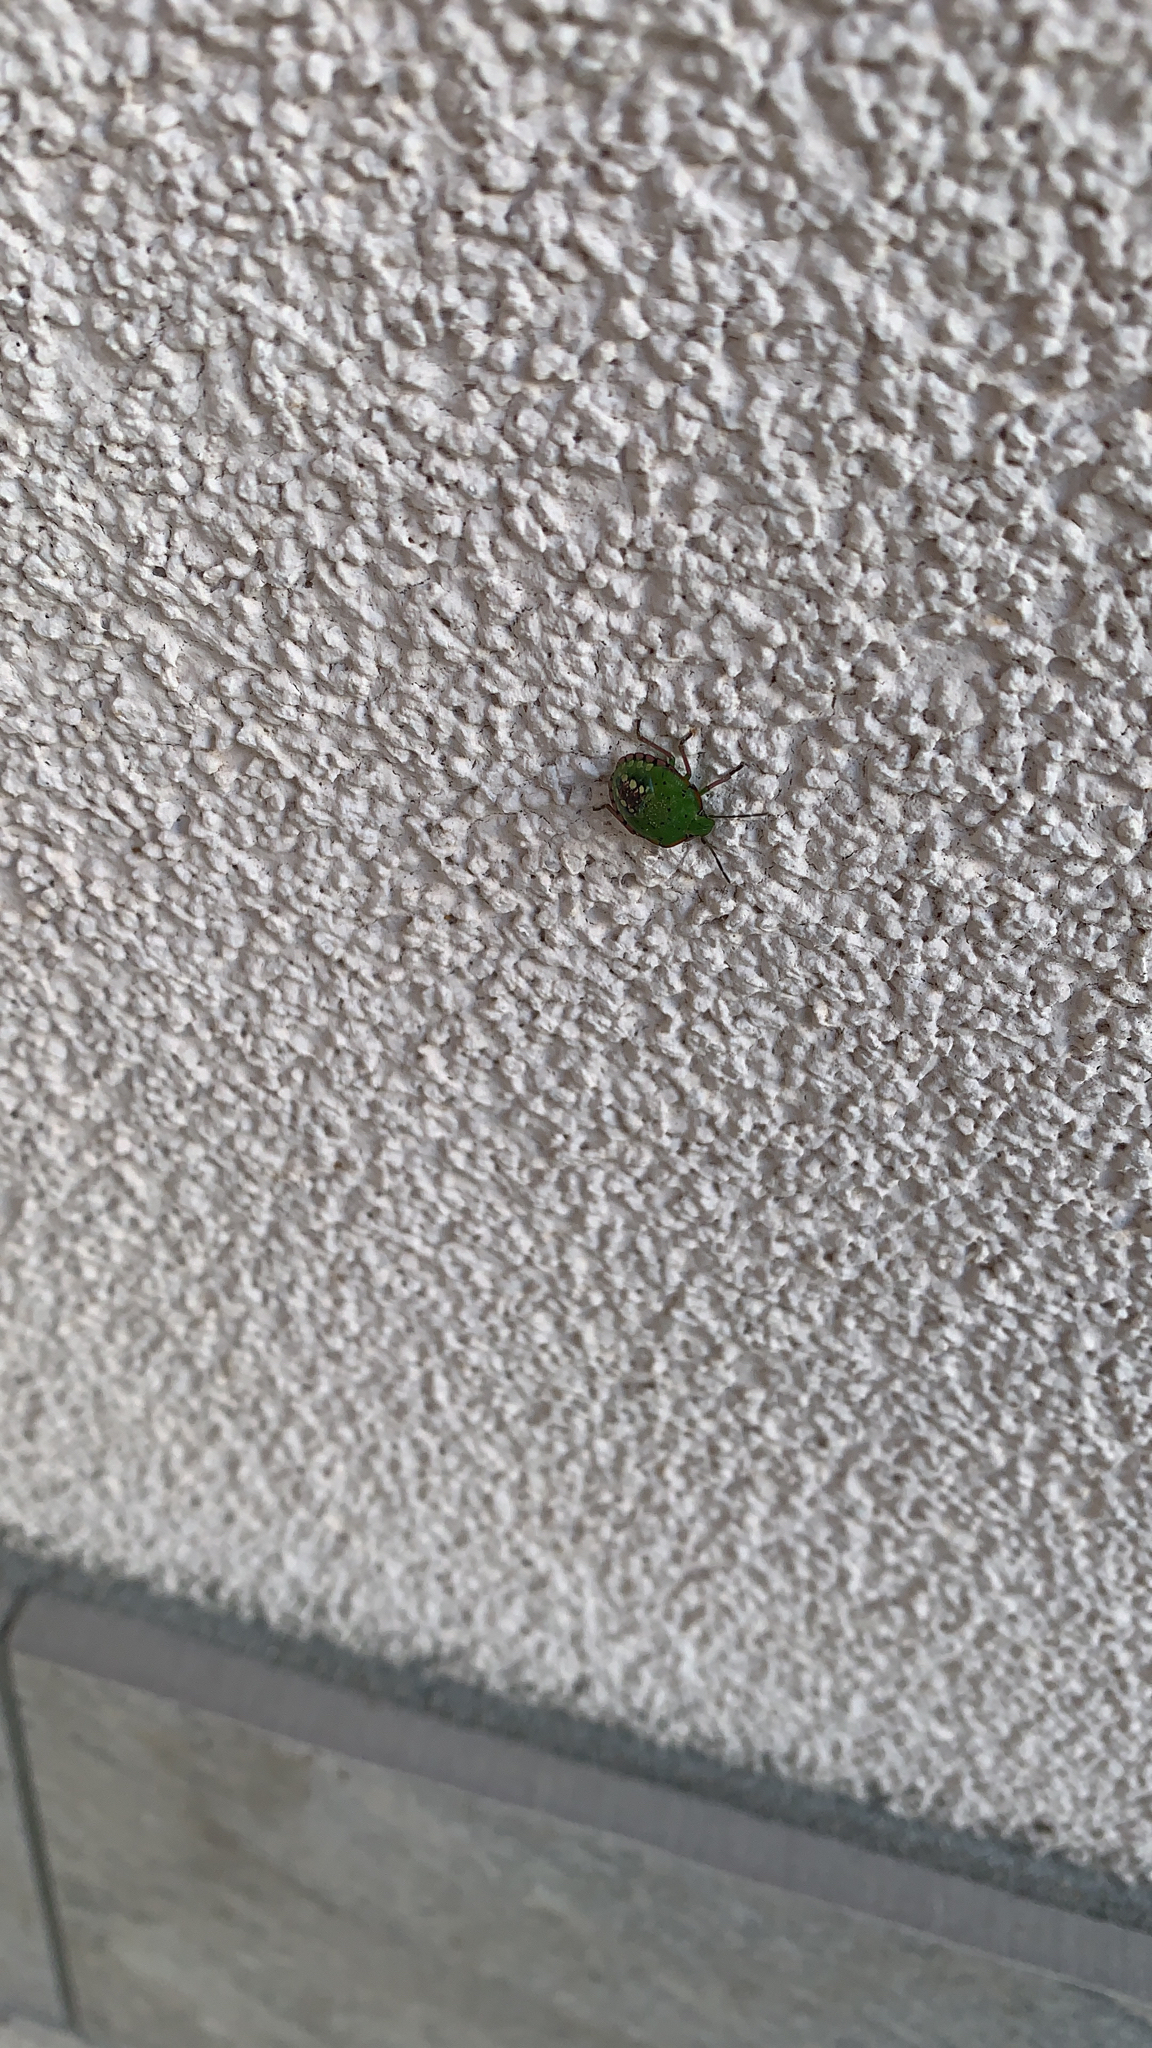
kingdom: Animalia
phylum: Arthropoda
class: Insecta
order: Hemiptera
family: Pentatomidae
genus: Nezara
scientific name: Nezara viridula
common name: Southern green stink bug
